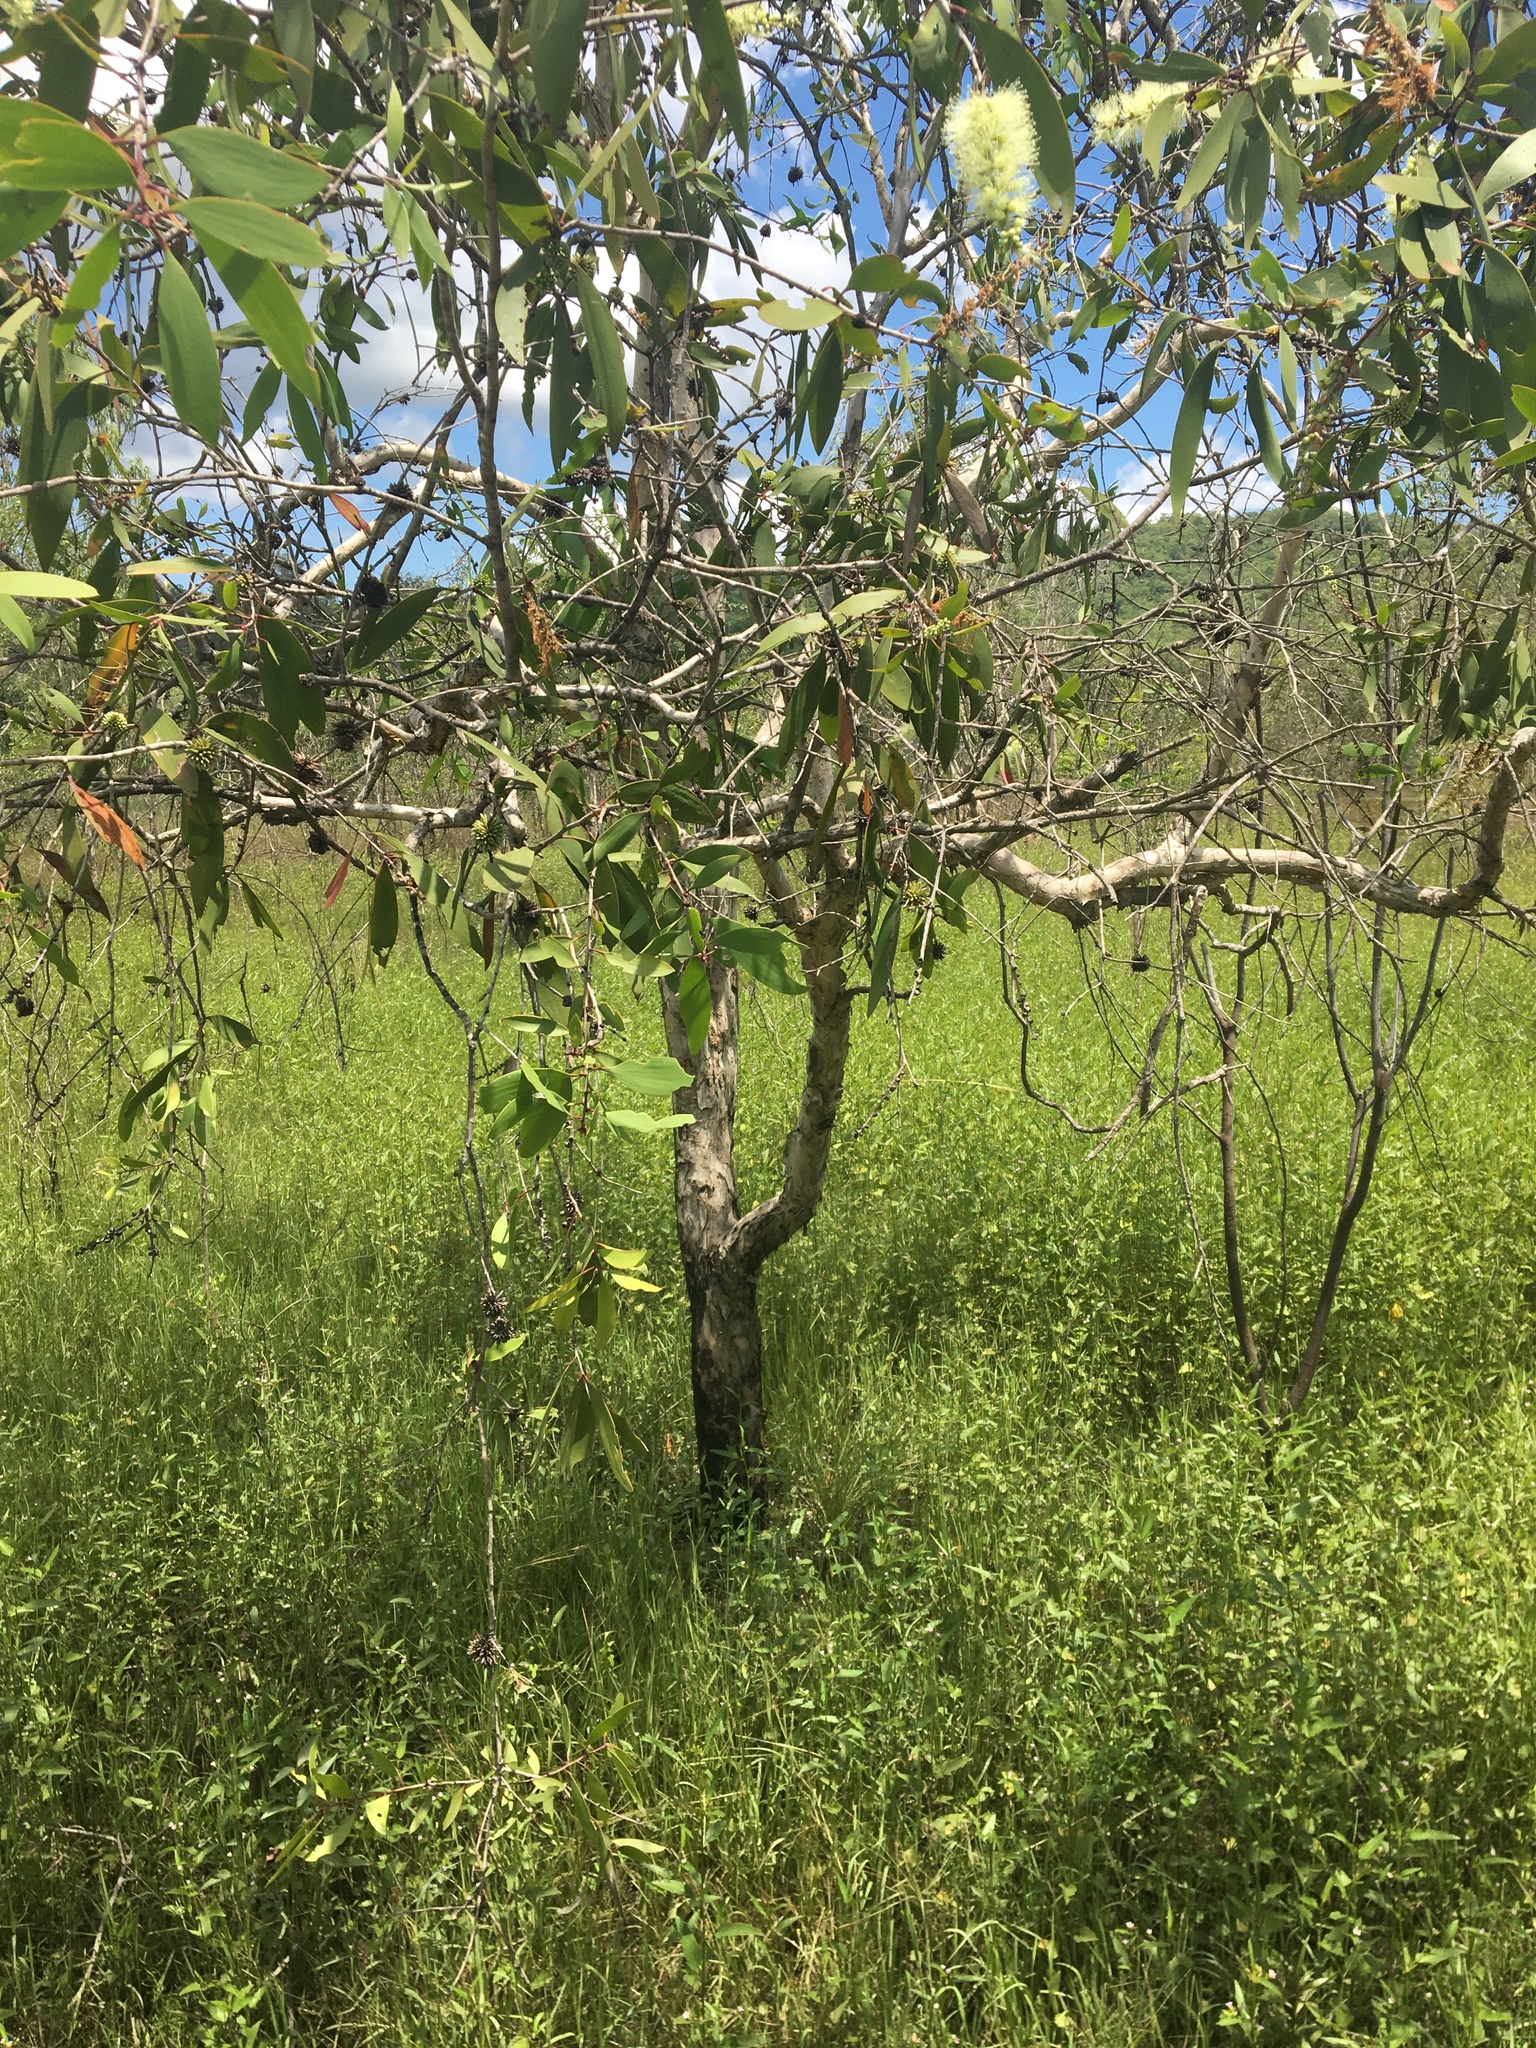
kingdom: Plantae
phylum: Tracheophyta
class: Magnoliopsida
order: Myrtales
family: Myrtaceae
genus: Melaleuca
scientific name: Melaleuca viridiflora
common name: Brown-leaved paperbark
